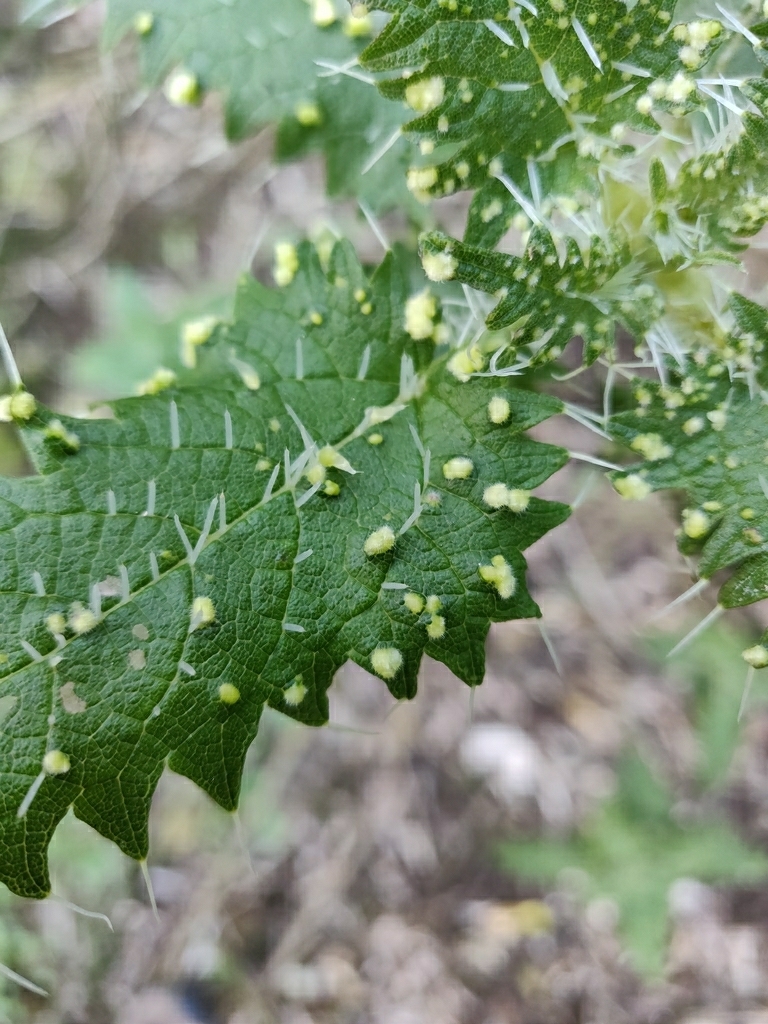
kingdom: Animalia
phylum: Arthropoda
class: Arachnida
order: Trombidiformes
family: Eriophyidae
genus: Vittacus
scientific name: Vittacus
